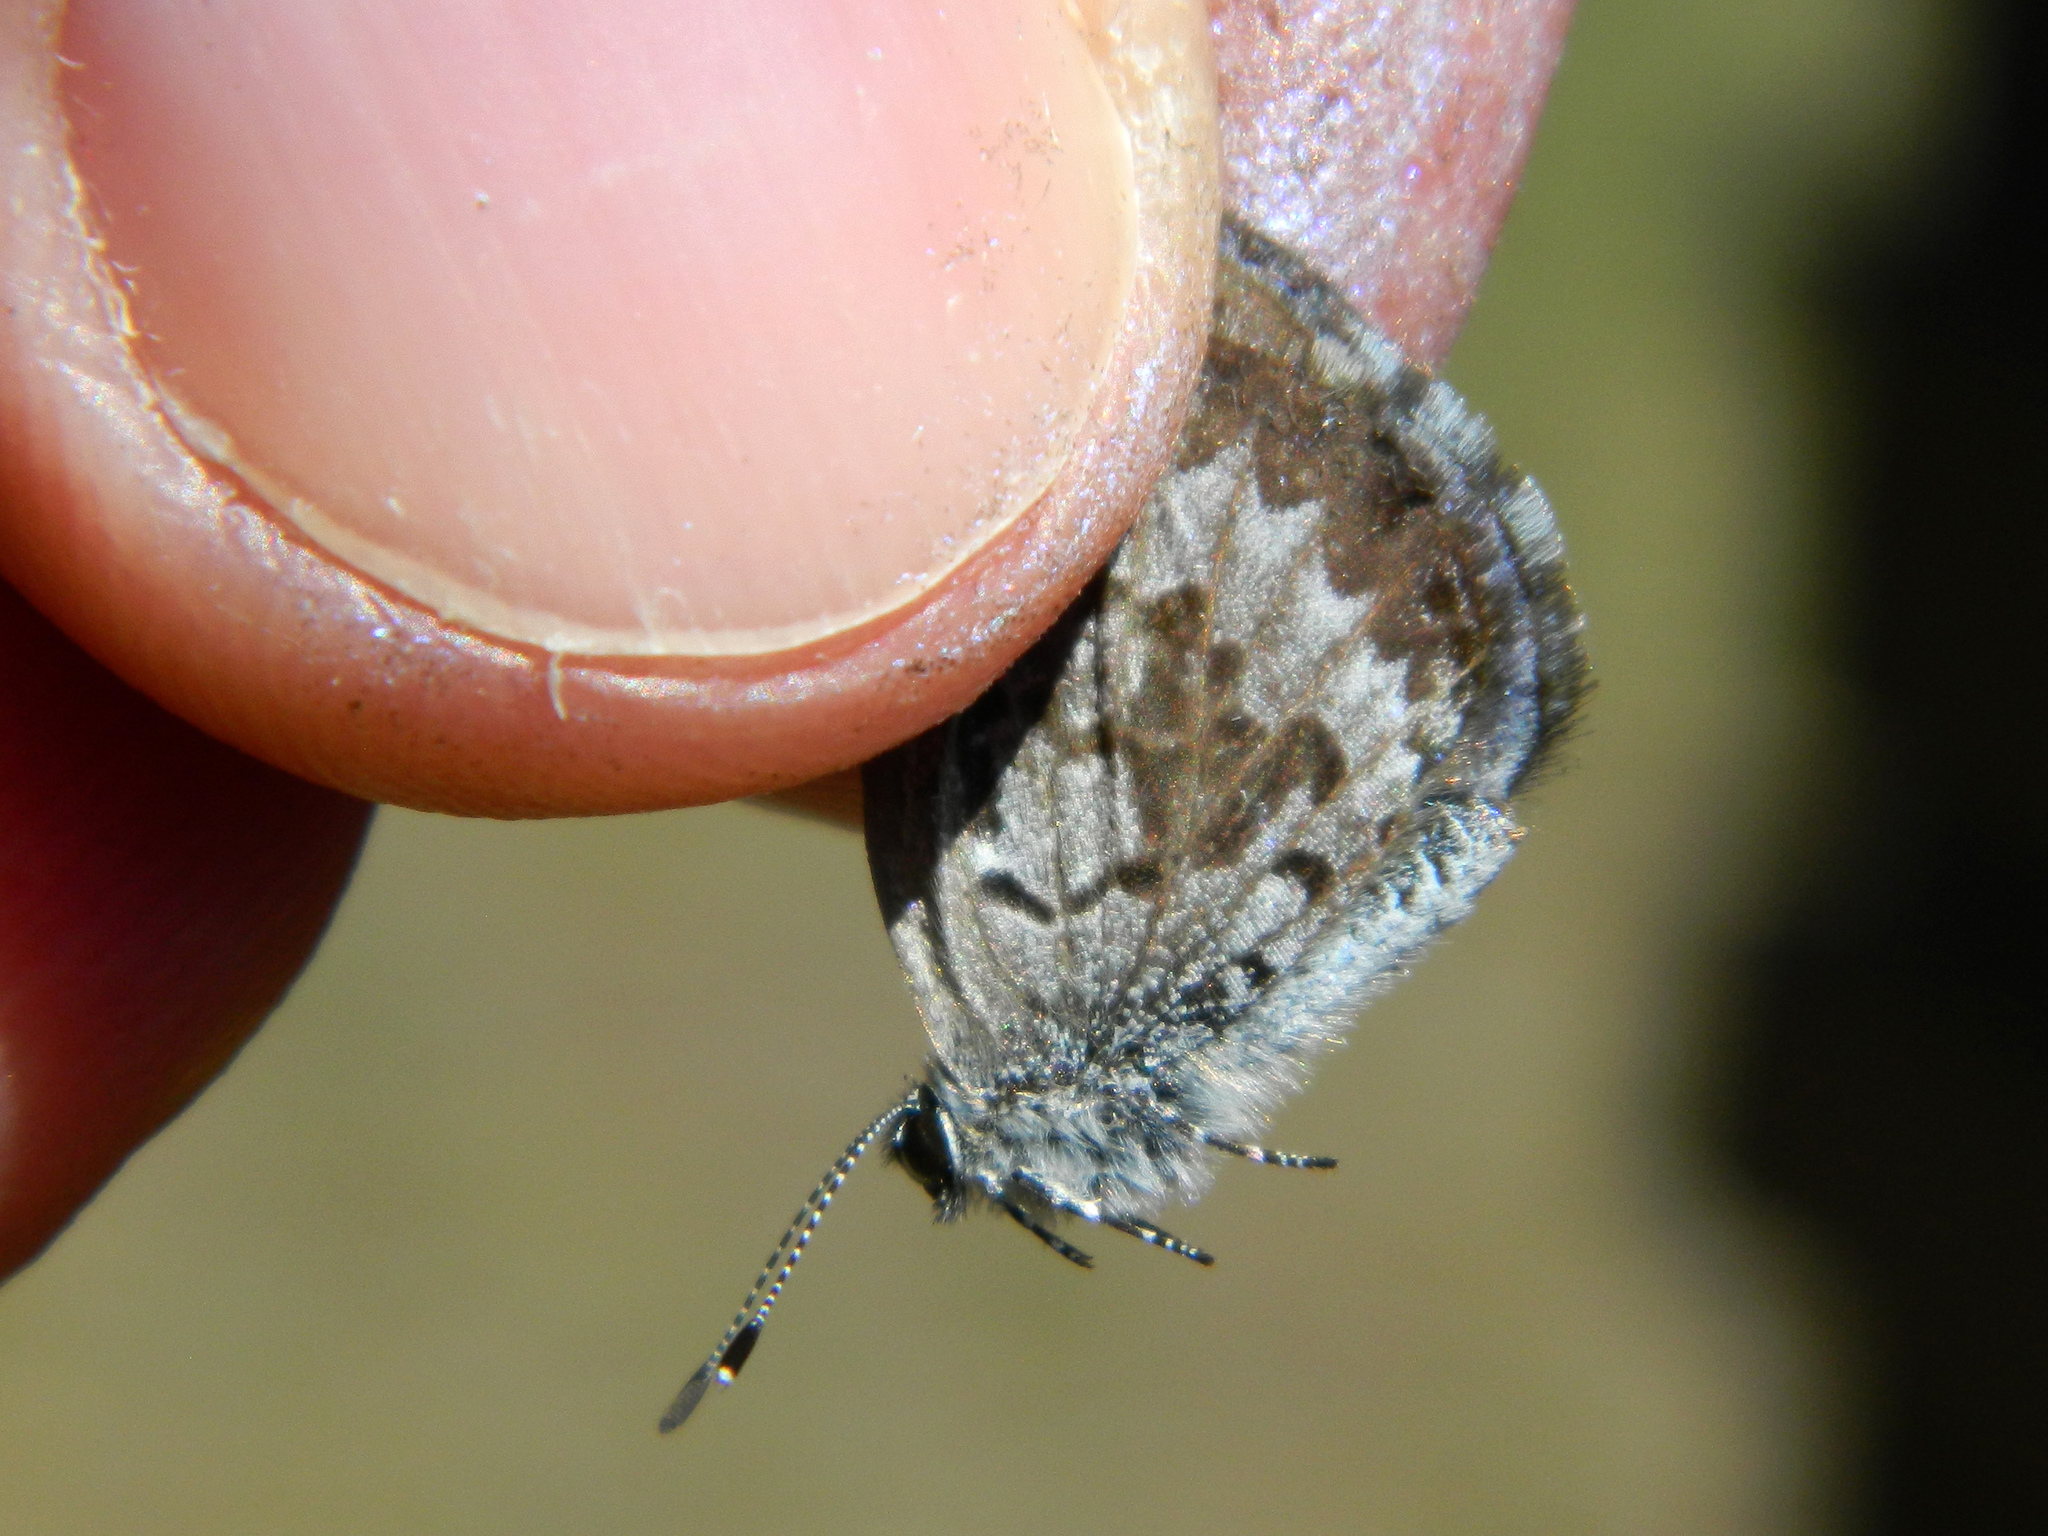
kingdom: Animalia
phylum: Arthropoda
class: Insecta
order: Lepidoptera
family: Lycaenidae
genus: Celastrina
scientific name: Celastrina lucia
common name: Lucia azure
